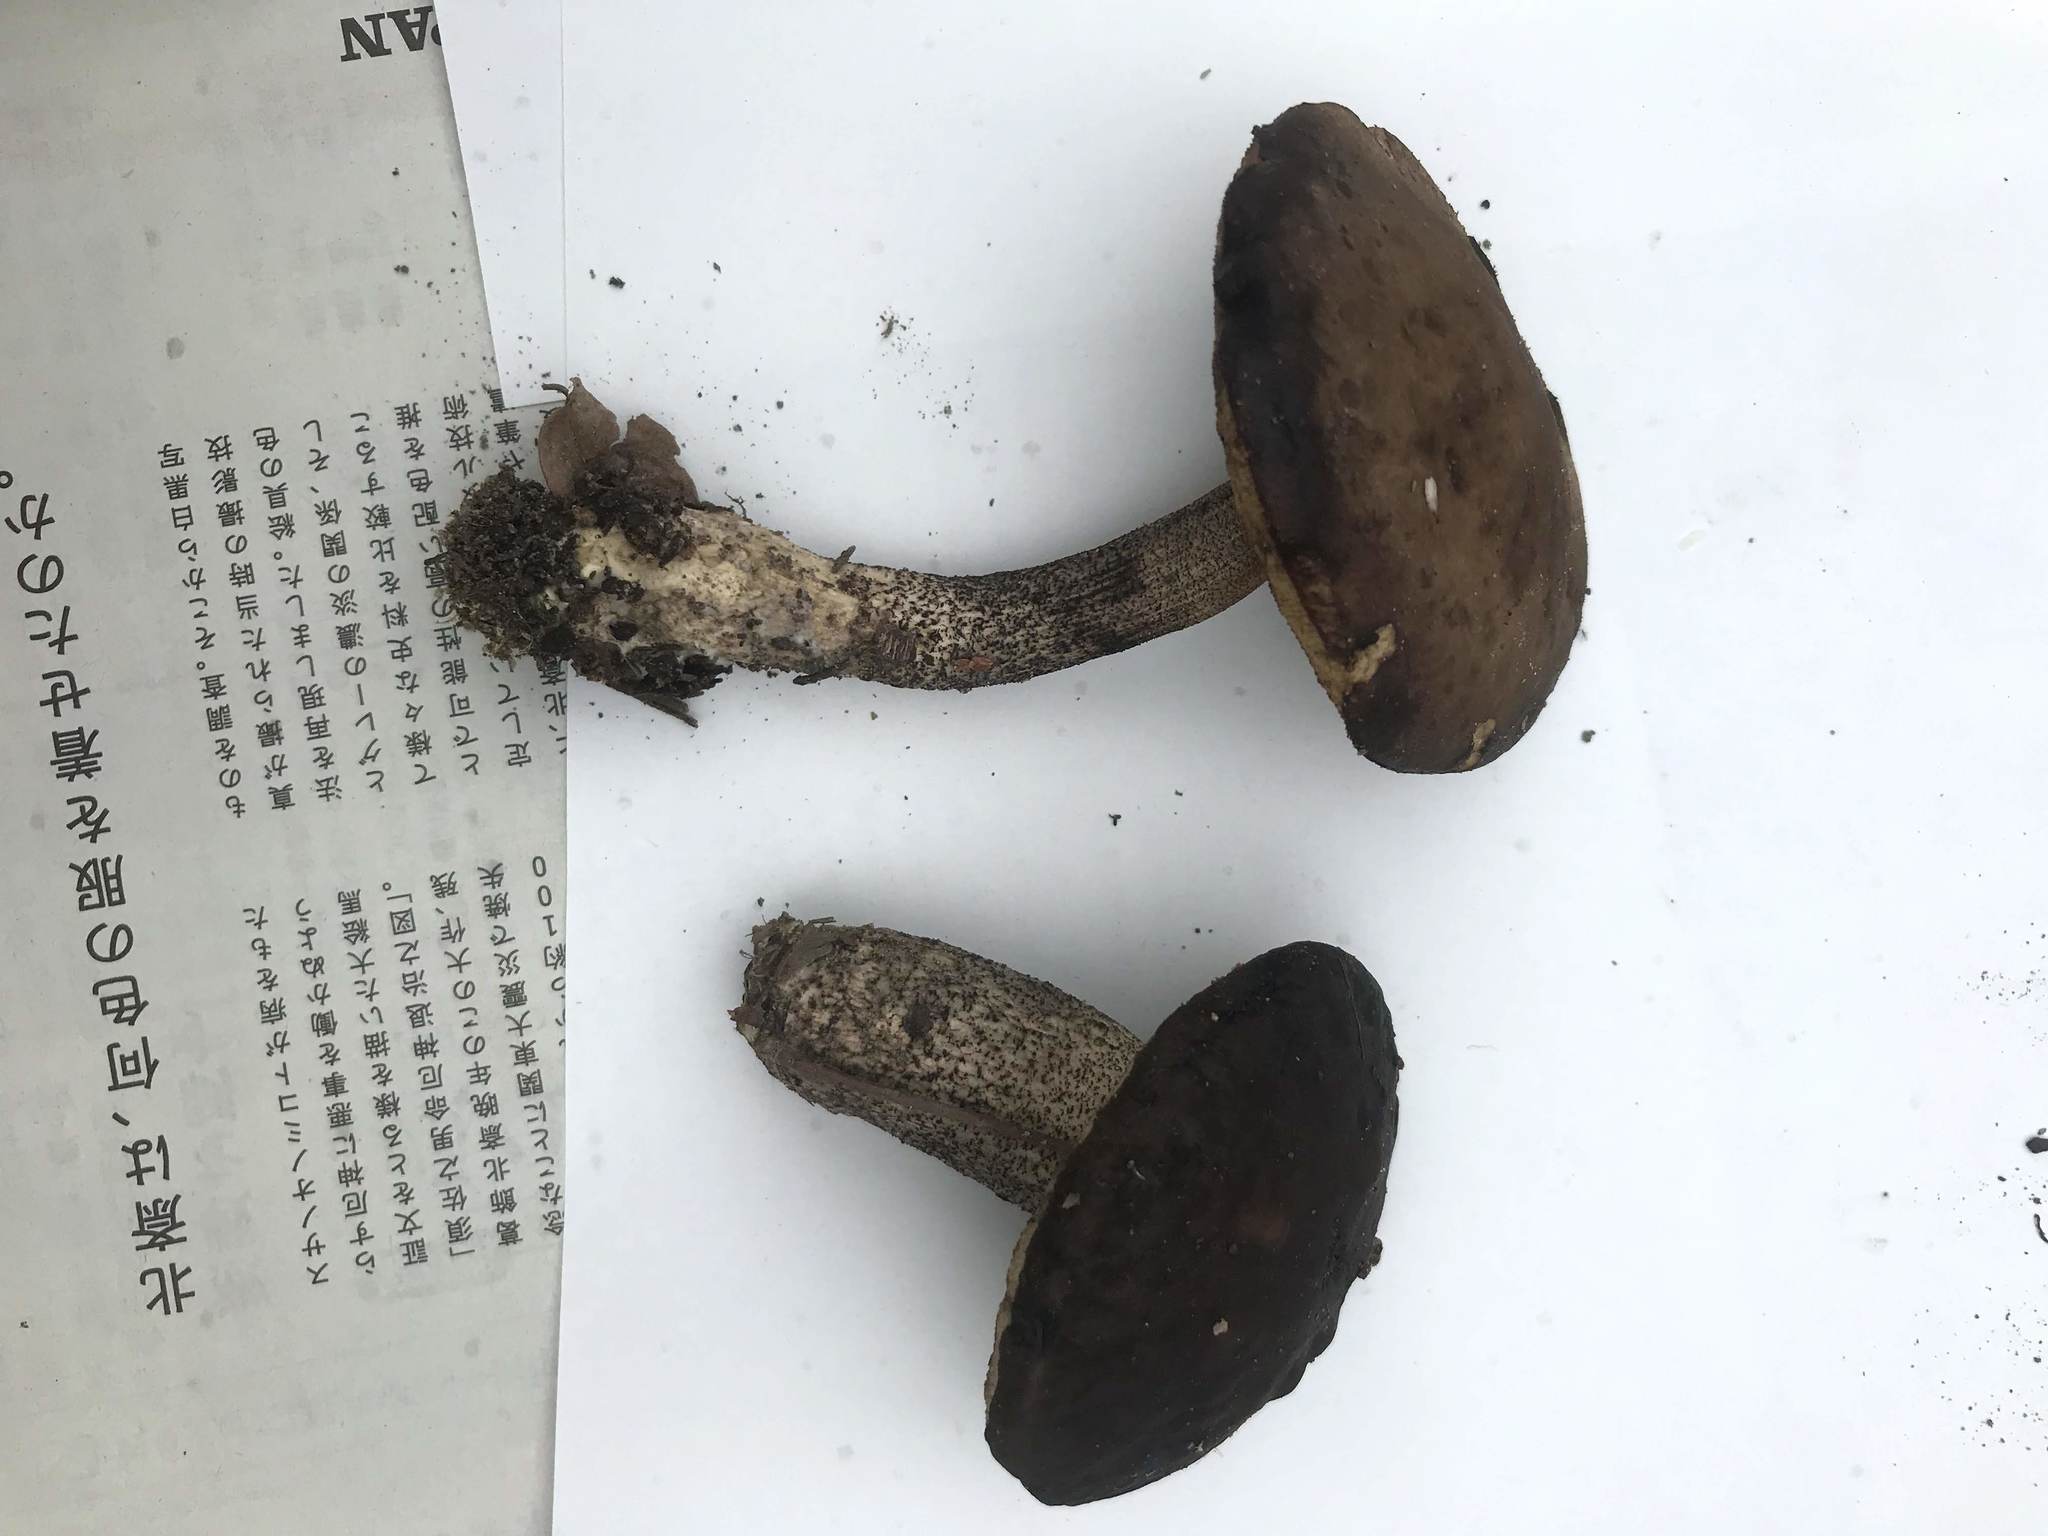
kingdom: Fungi
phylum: Basidiomycota
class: Agaricomycetes
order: Boletales
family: Boletaceae
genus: Leccinellum
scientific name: Leccinellum griseum
